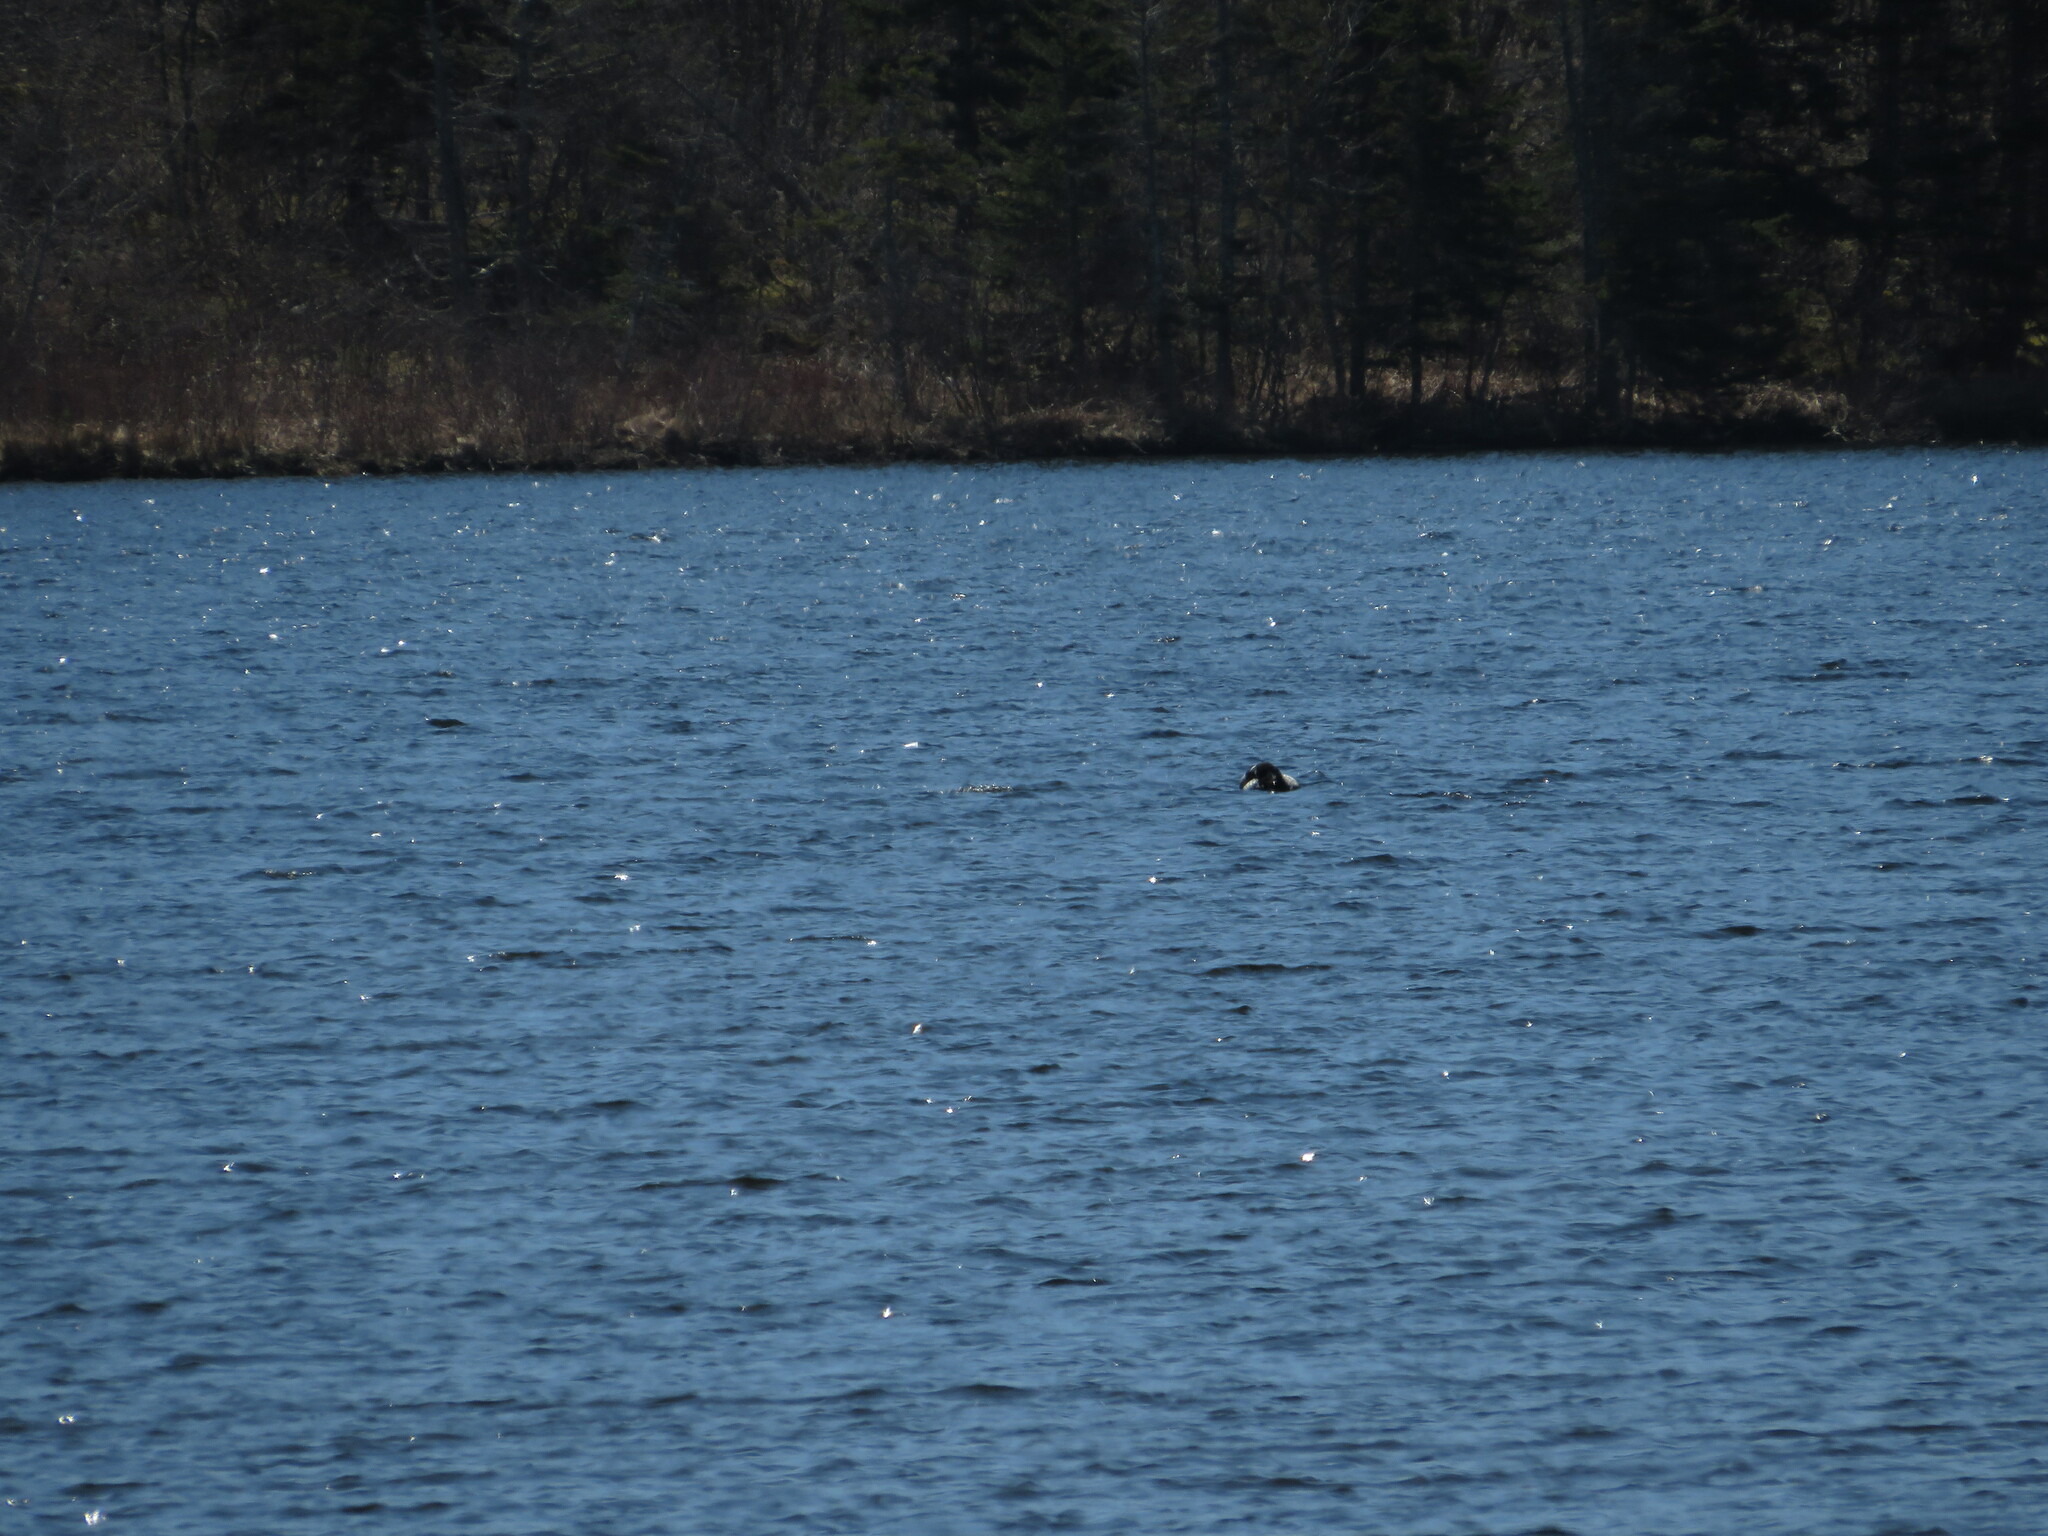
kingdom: Animalia
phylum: Chordata
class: Aves
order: Gaviiformes
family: Gaviidae
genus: Gavia
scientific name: Gavia immer
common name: Common loon
